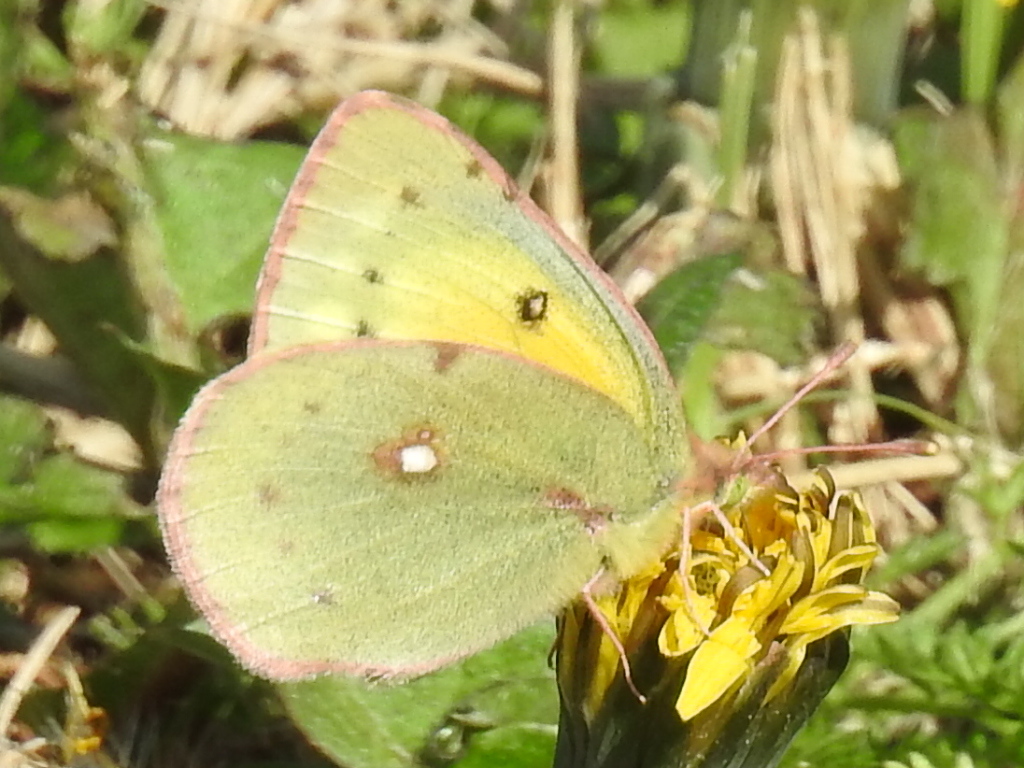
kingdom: Animalia
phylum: Arthropoda
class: Insecta
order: Lepidoptera
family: Pieridae
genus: Colias
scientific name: Colias eurytheme
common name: Alfalfa butterfly
